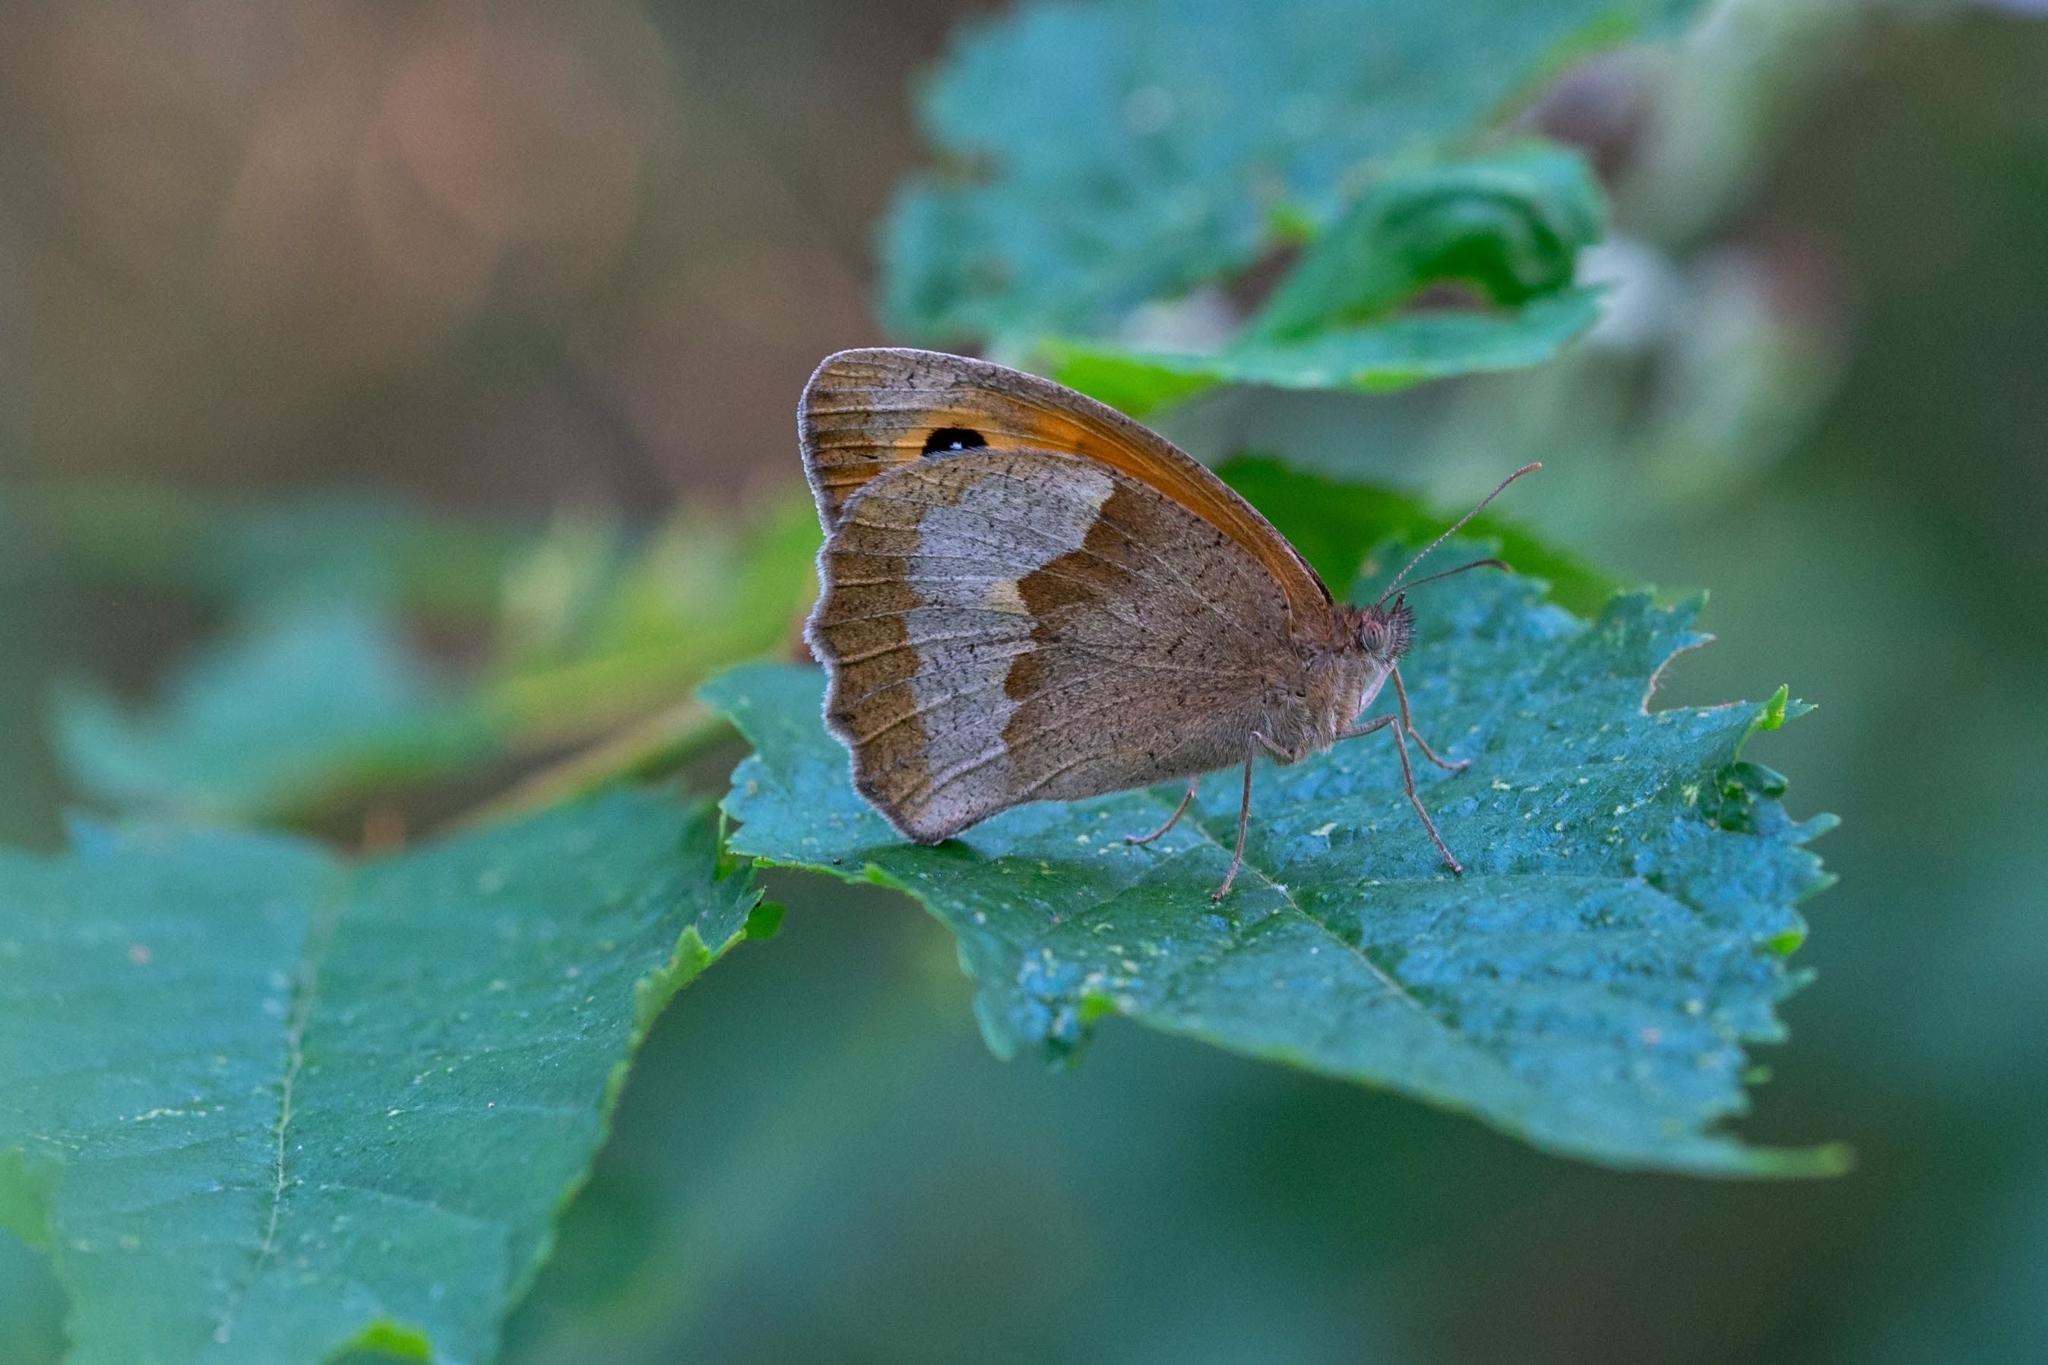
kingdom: Animalia
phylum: Arthropoda
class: Insecta
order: Lepidoptera
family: Nymphalidae
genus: Maniola
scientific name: Maniola jurtina
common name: Meadow brown
